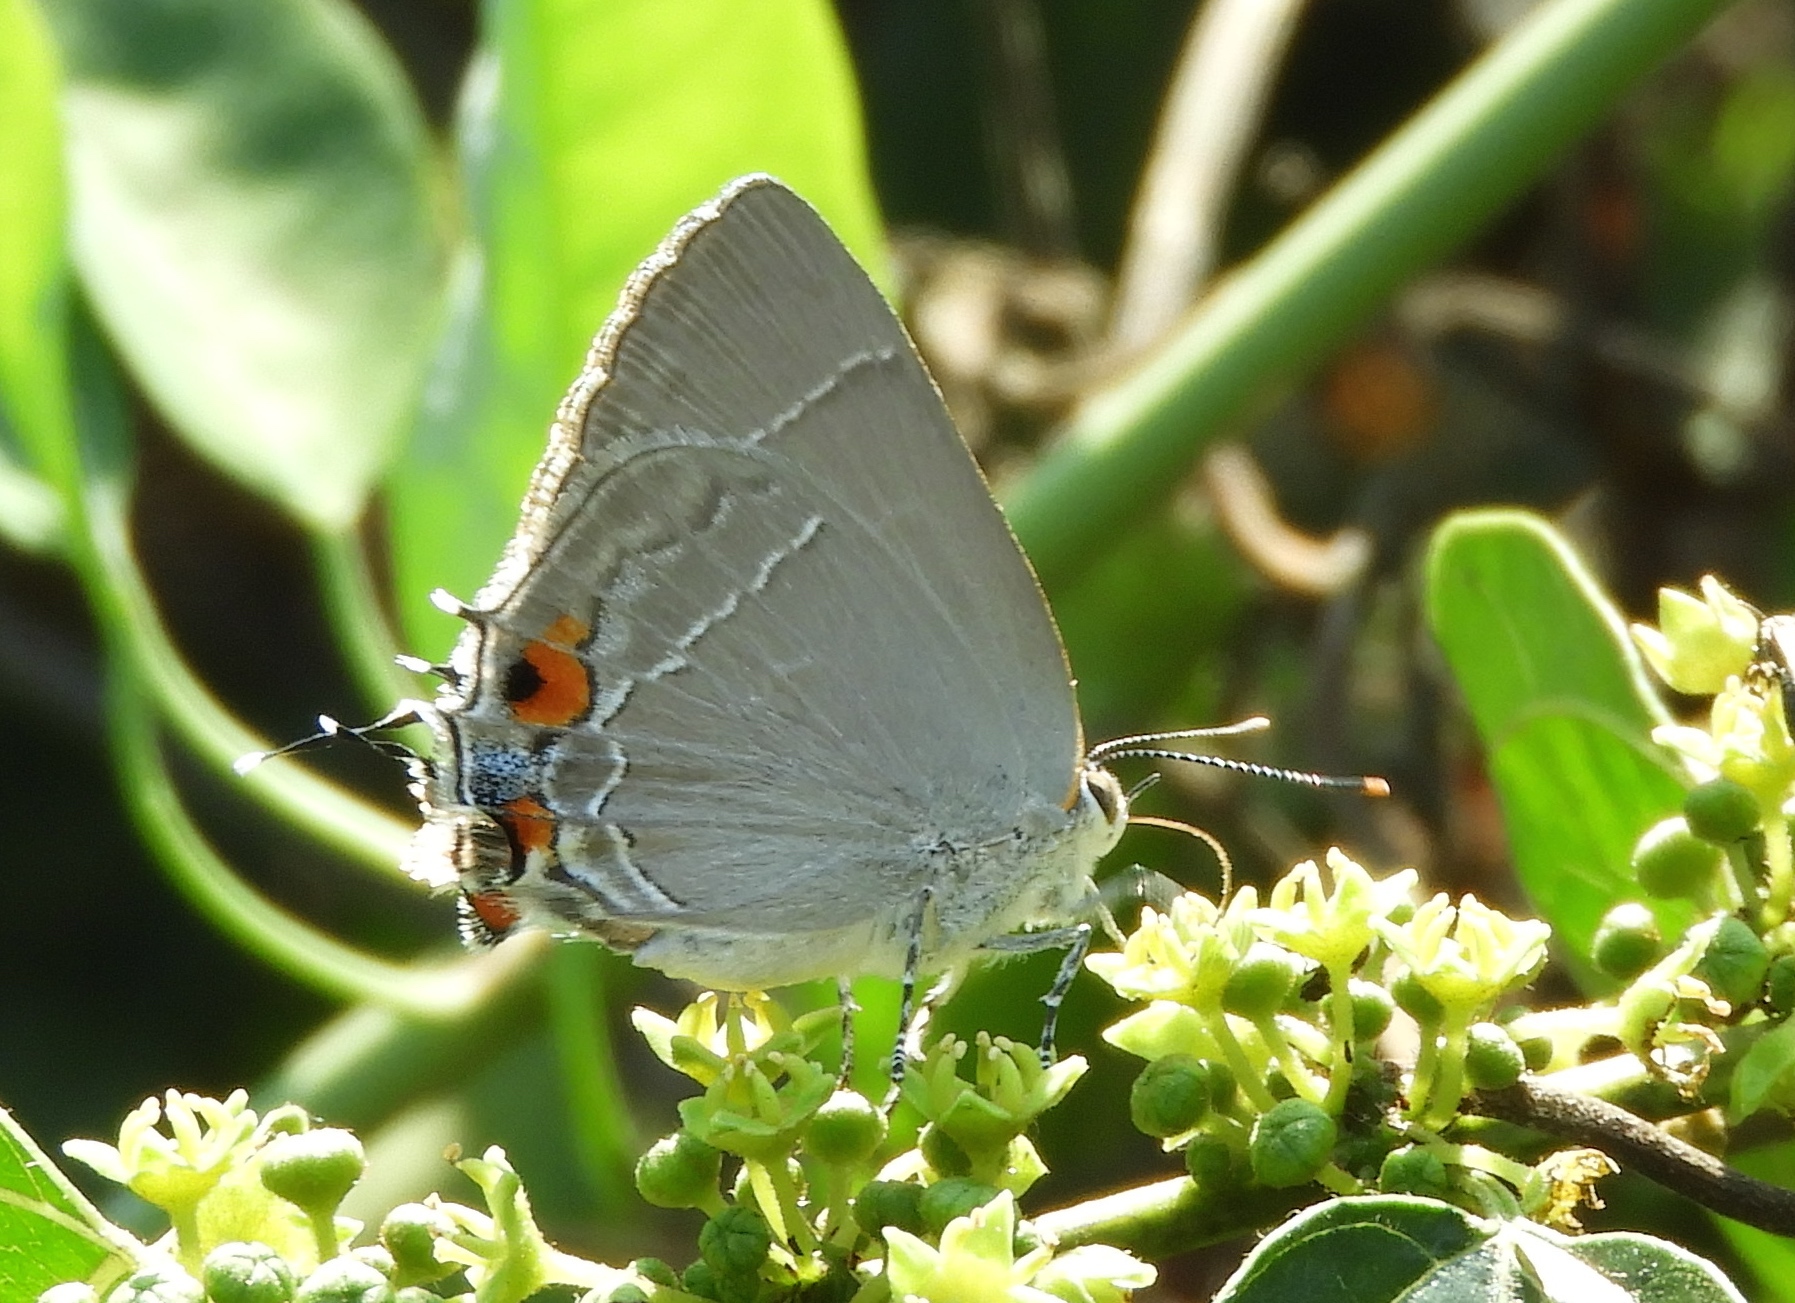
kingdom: Animalia
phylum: Arthropoda
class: Insecta
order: Lepidoptera
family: Lycaenidae
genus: Thecla
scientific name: Thecla marius
